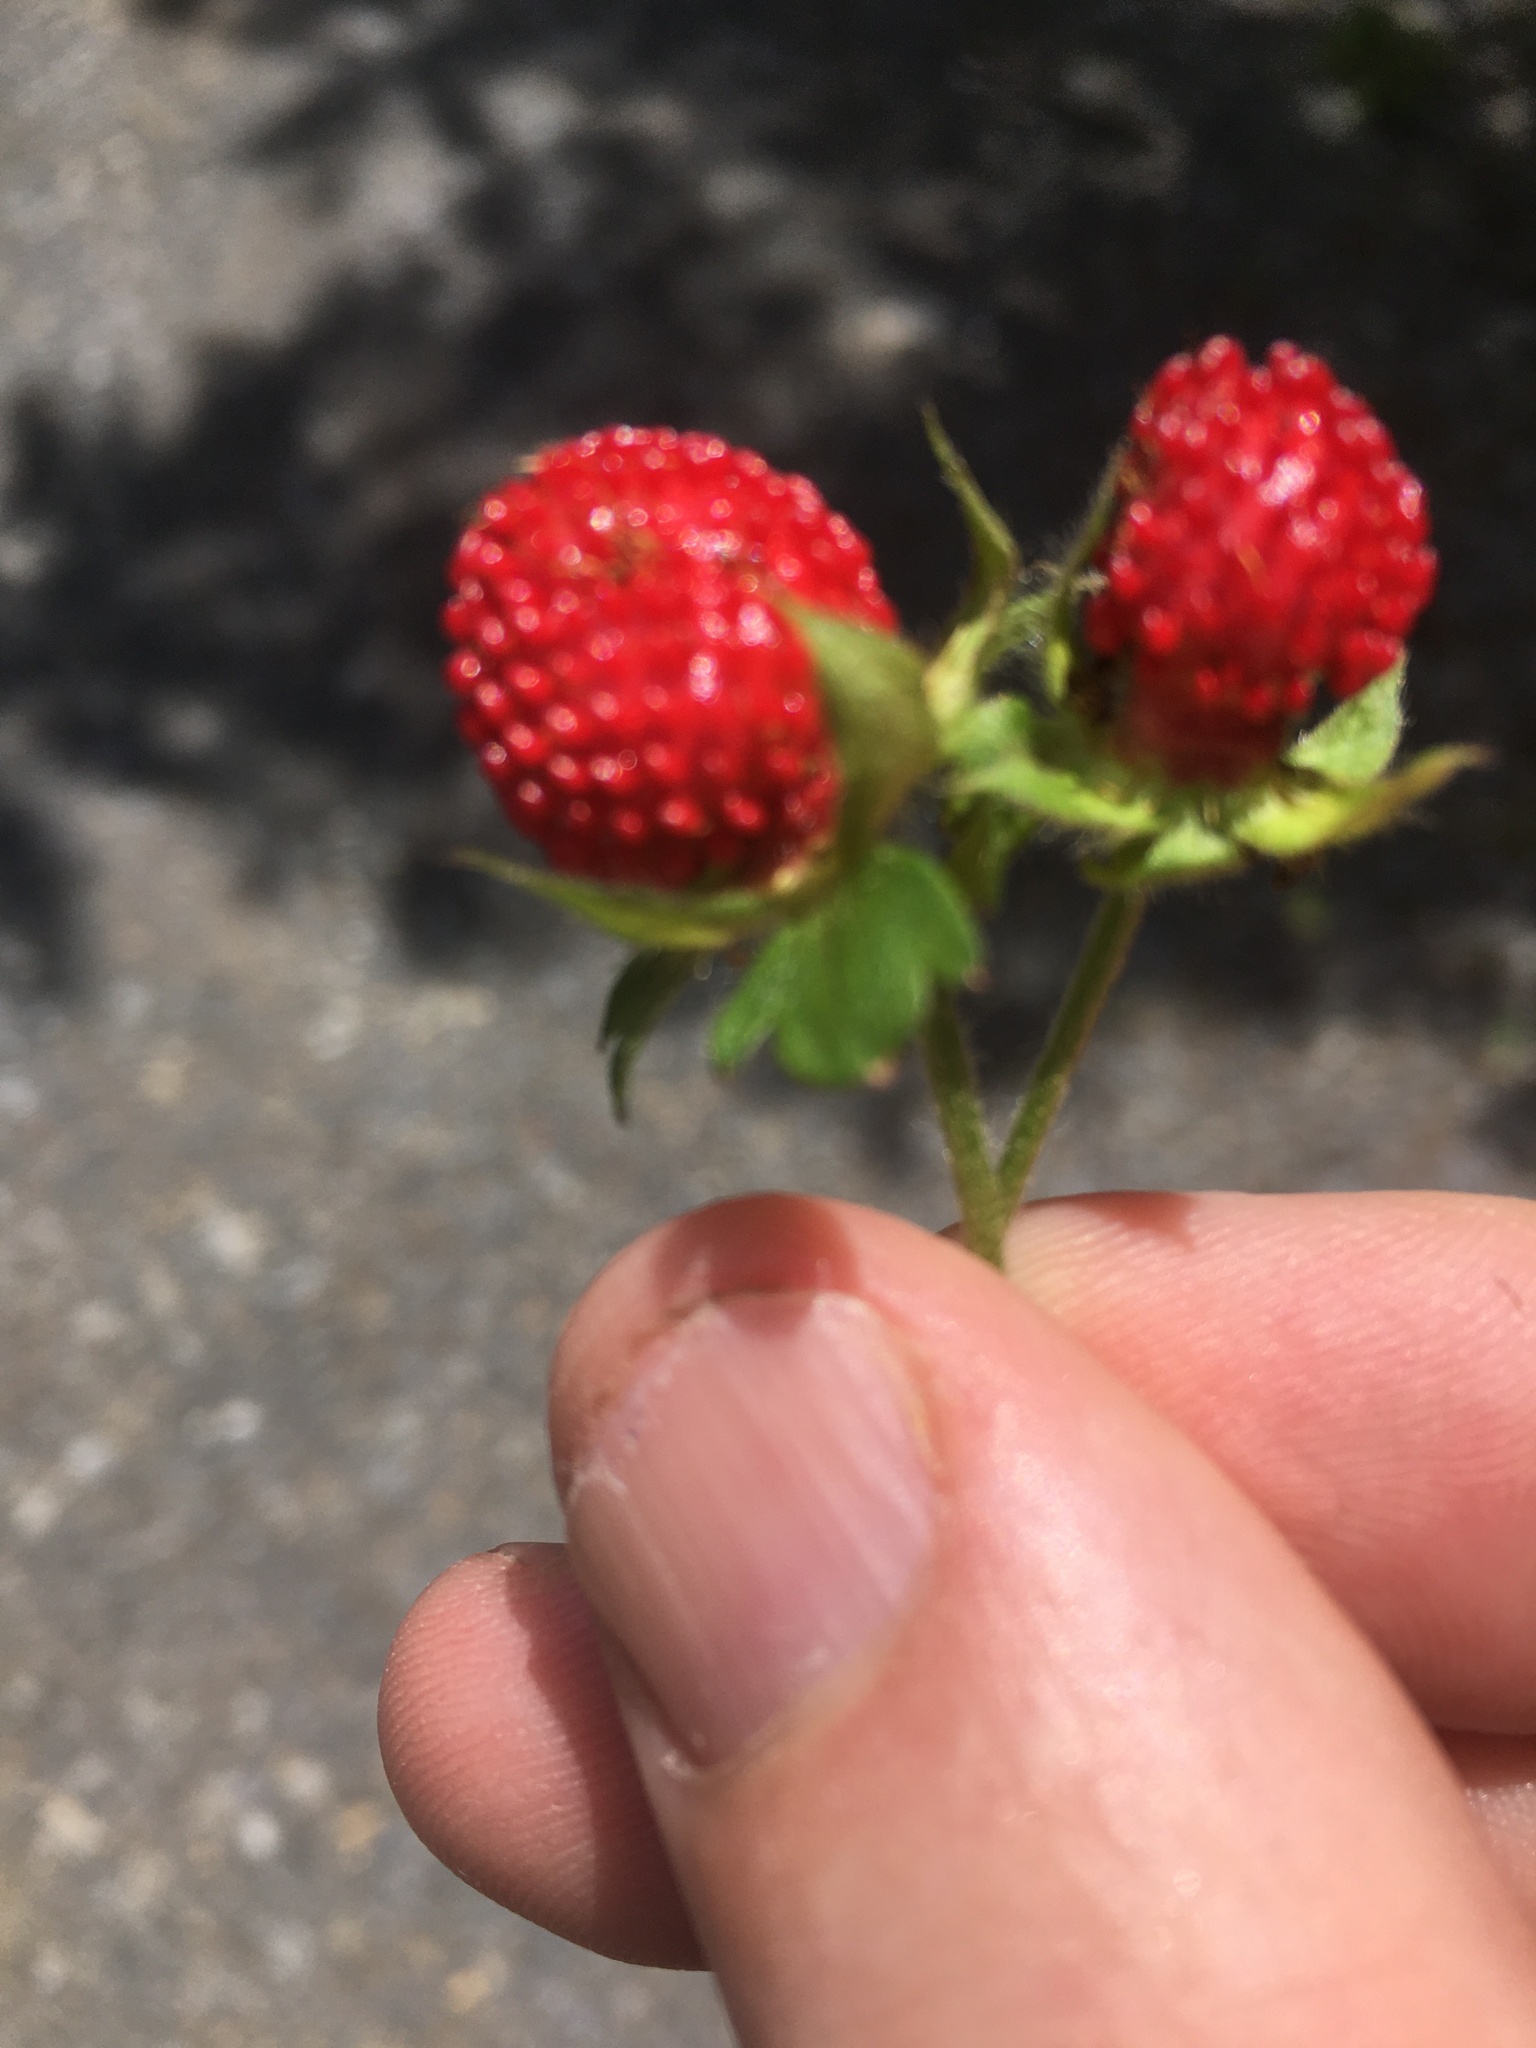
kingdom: Plantae
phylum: Tracheophyta
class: Magnoliopsida
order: Rosales
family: Rosaceae
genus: Potentilla
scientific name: Potentilla indica
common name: Yellow-flowered strawberry
